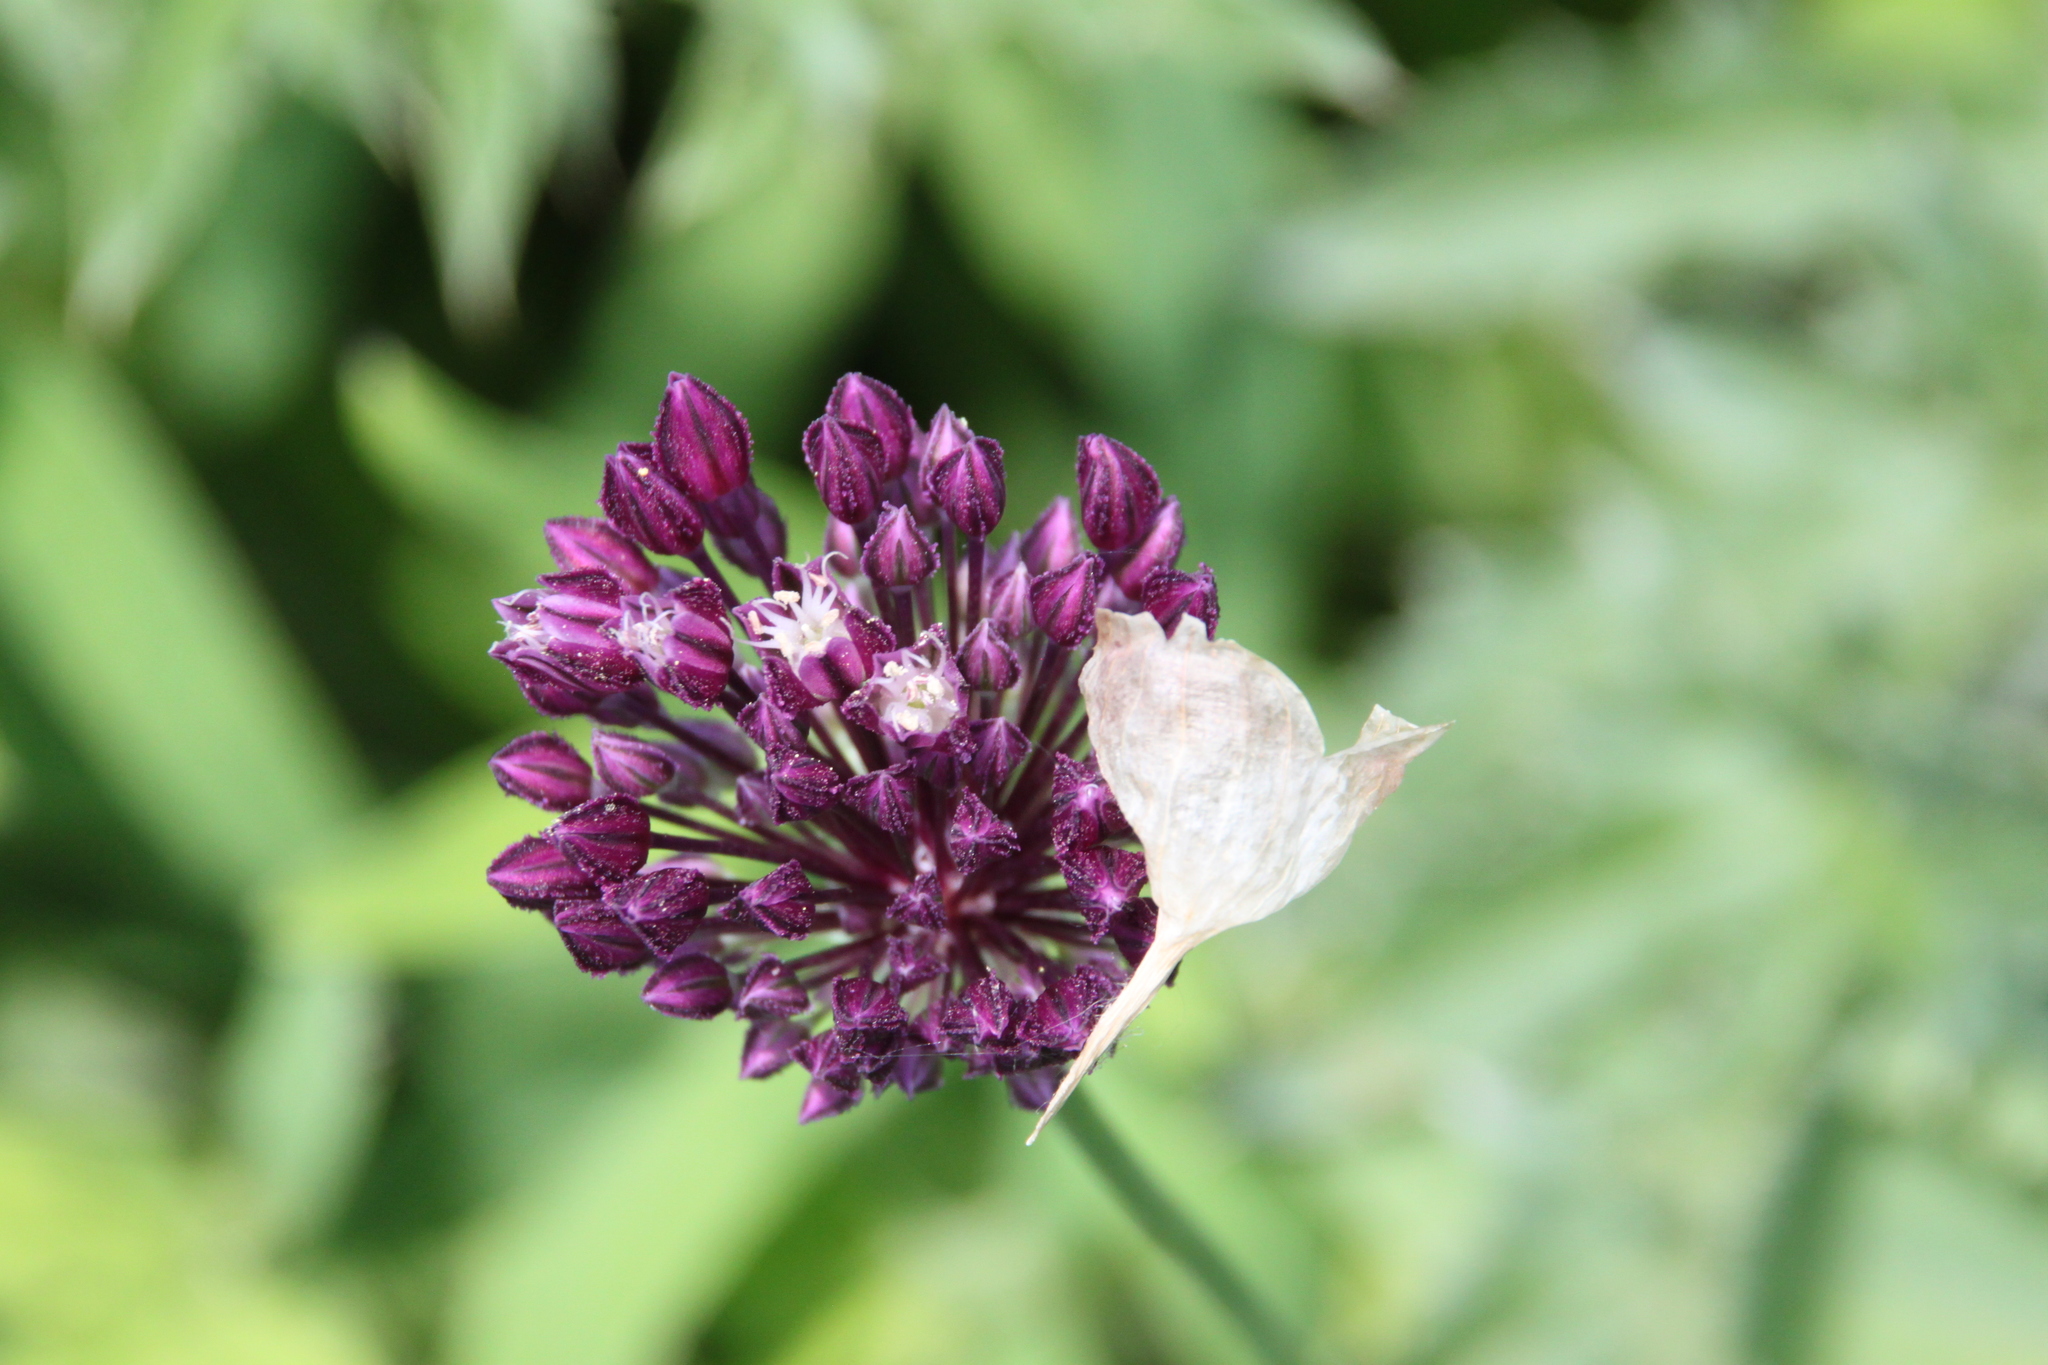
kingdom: Plantae
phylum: Tracheophyta
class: Liliopsida
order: Asparagales
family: Amaryllidaceae
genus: Allium
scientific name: Allium rotundum
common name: Sand leek
